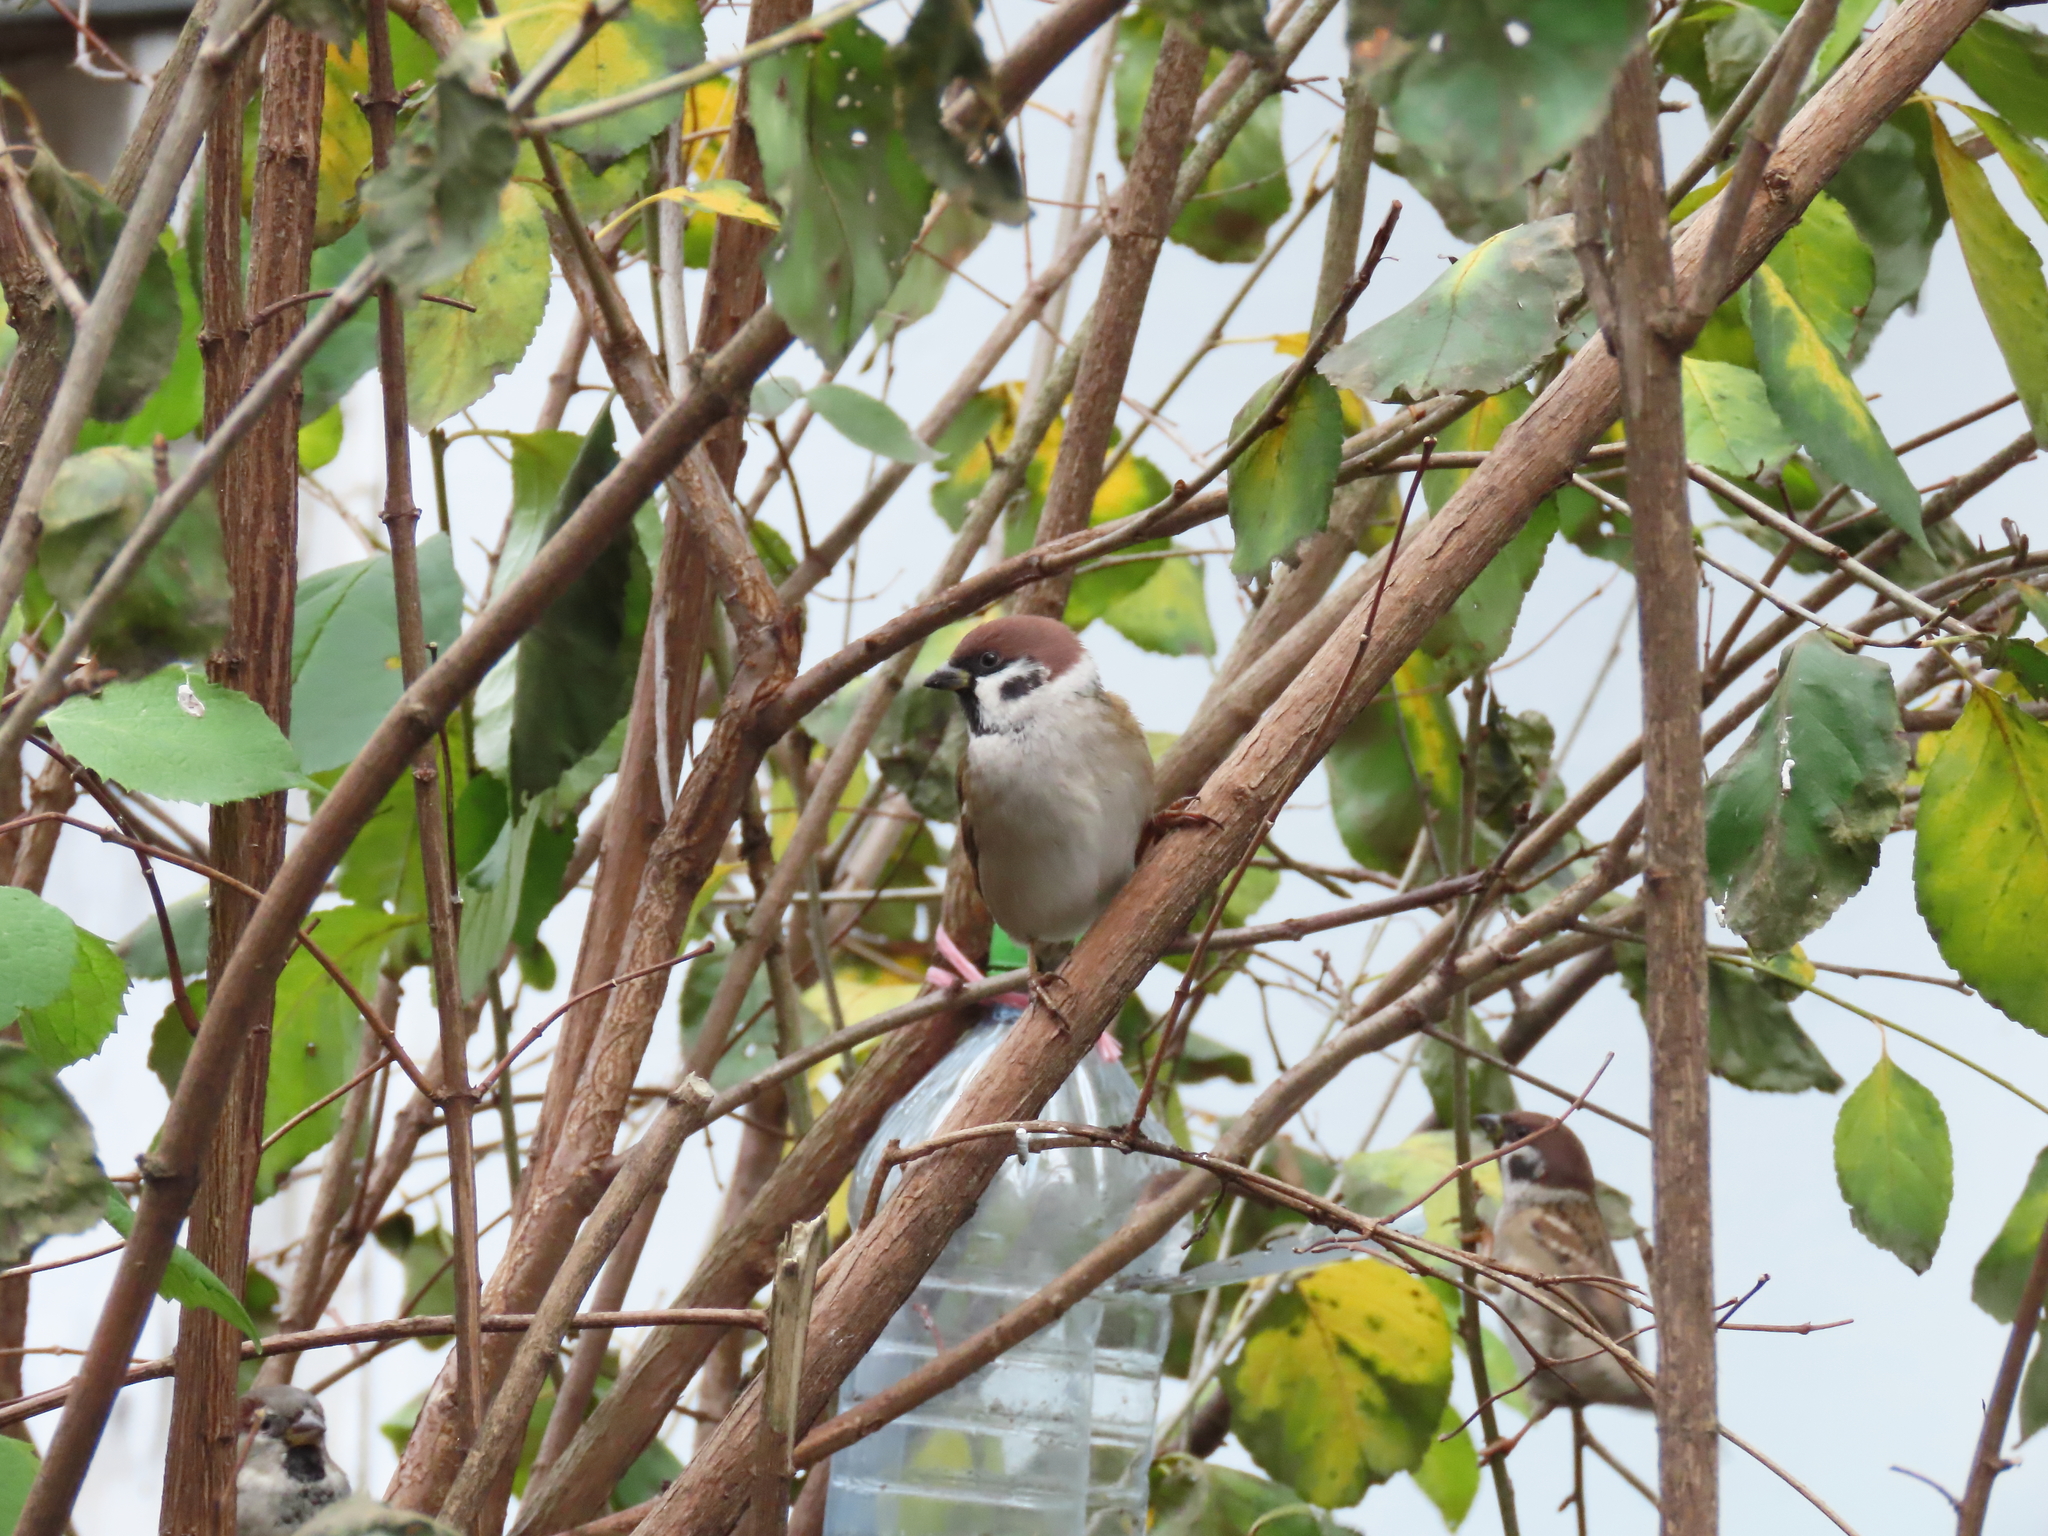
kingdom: Animalia
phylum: Chordata
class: Aves
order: Passeriformes
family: Passeridae
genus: Passer
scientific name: Passer montanus
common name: Eurasian tree sparrow
